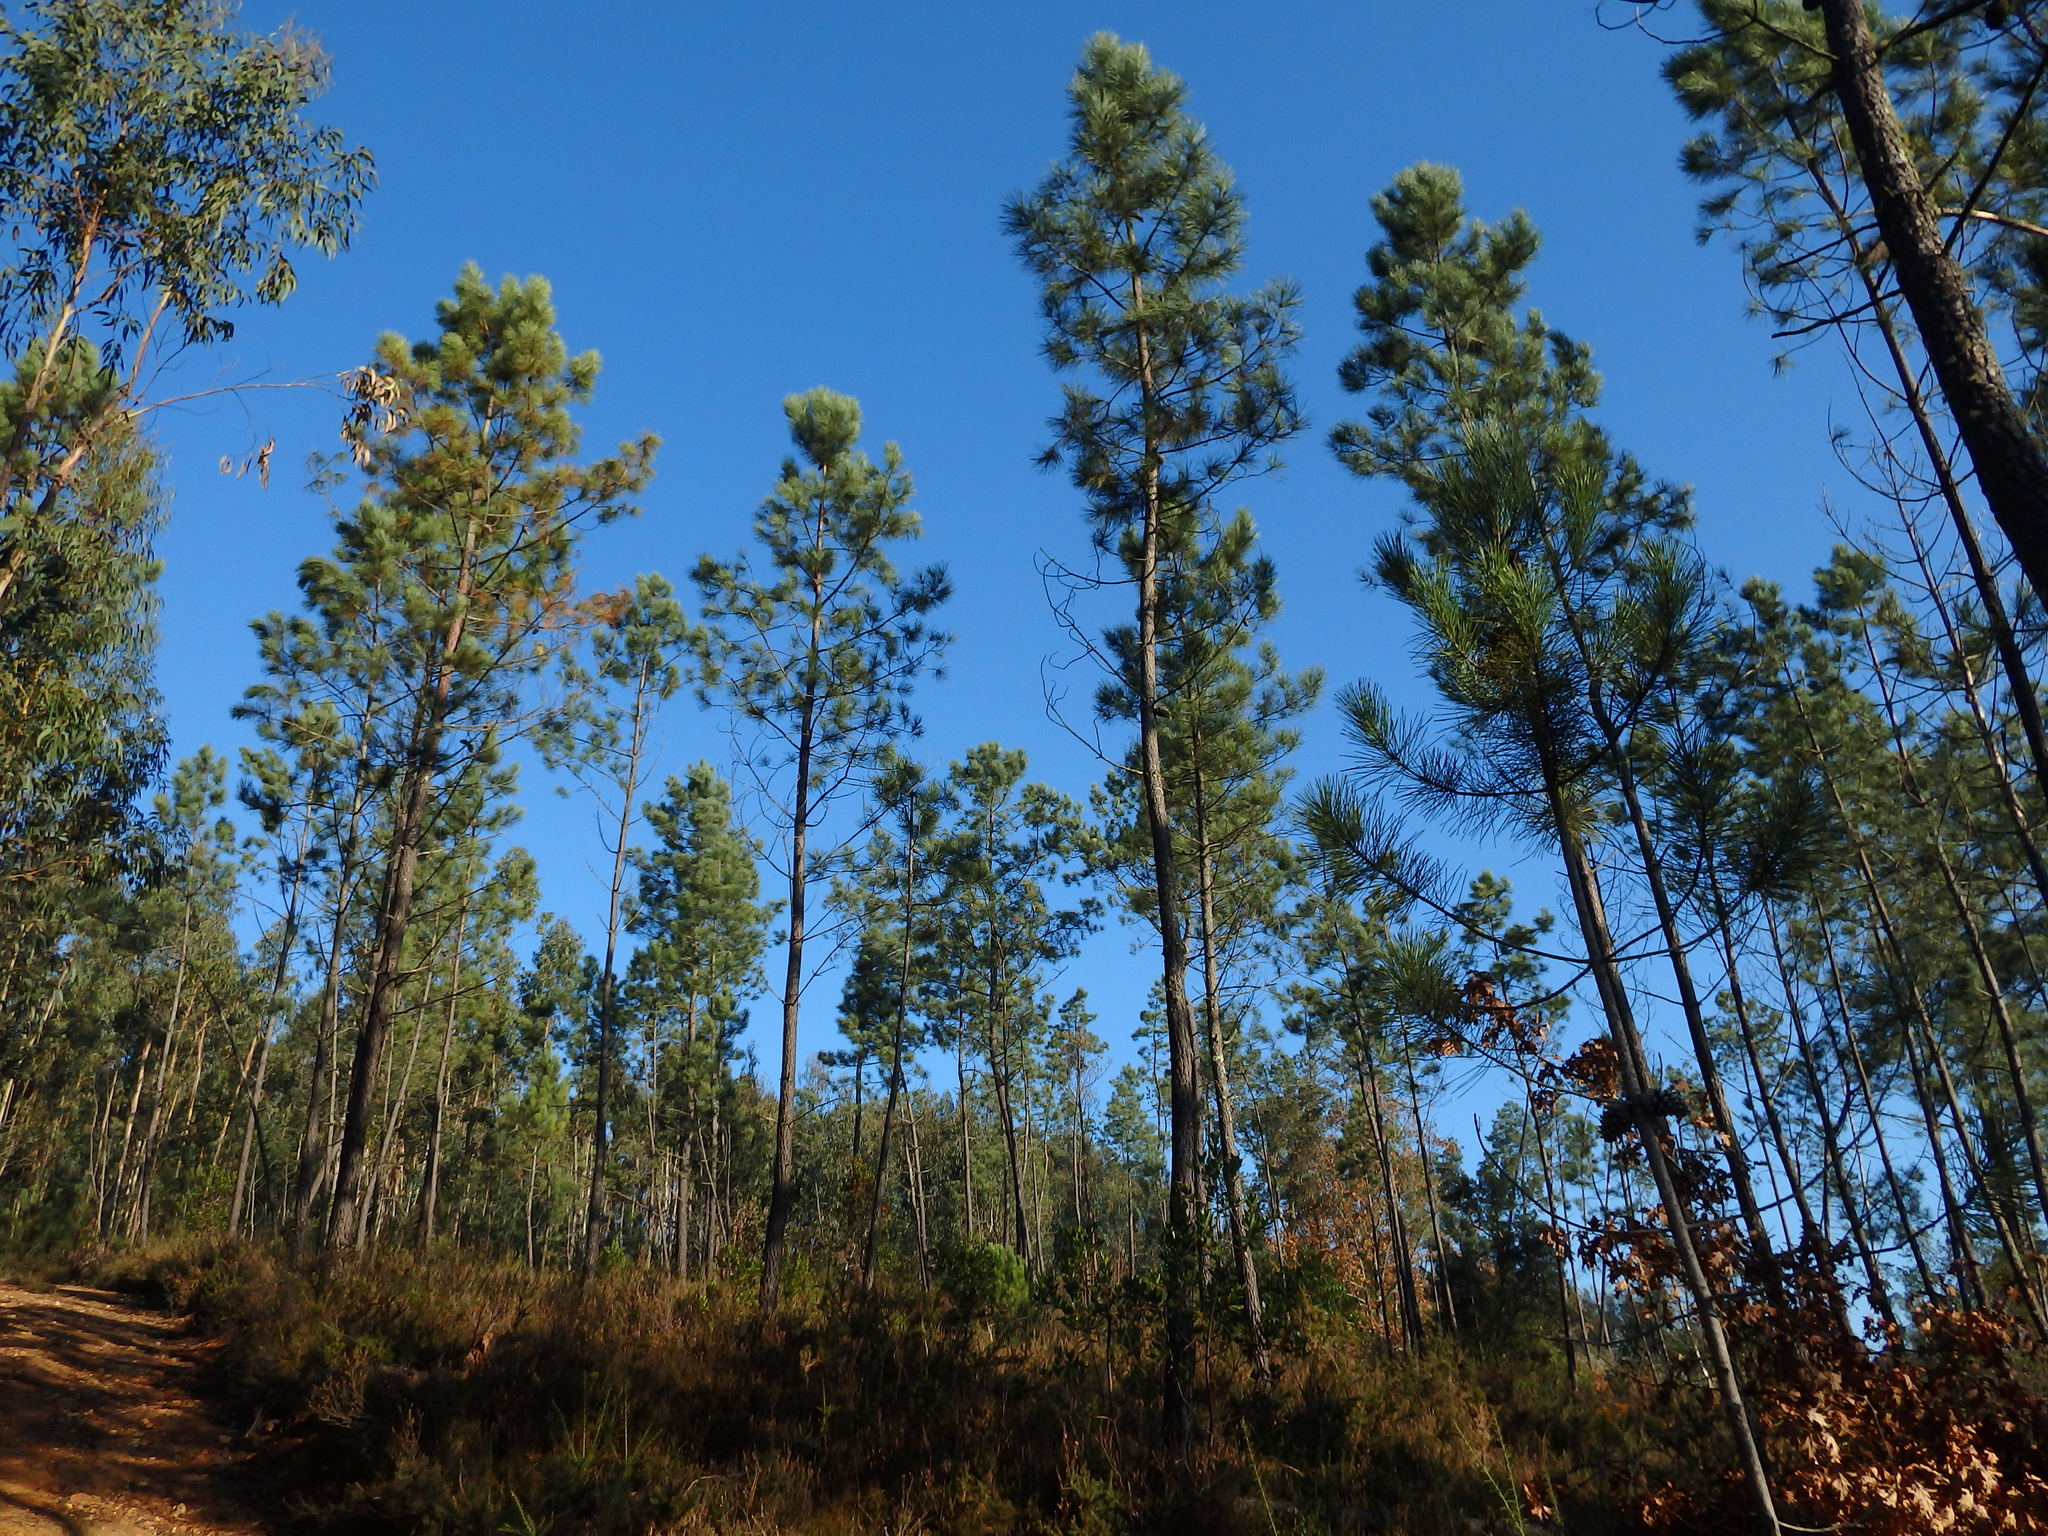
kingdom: Plantae
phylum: Tracheophyta
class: Pinopsida
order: Pinales
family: Pinaceae
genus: Pinus
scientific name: Pinus pinaster
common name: Maritime pine
